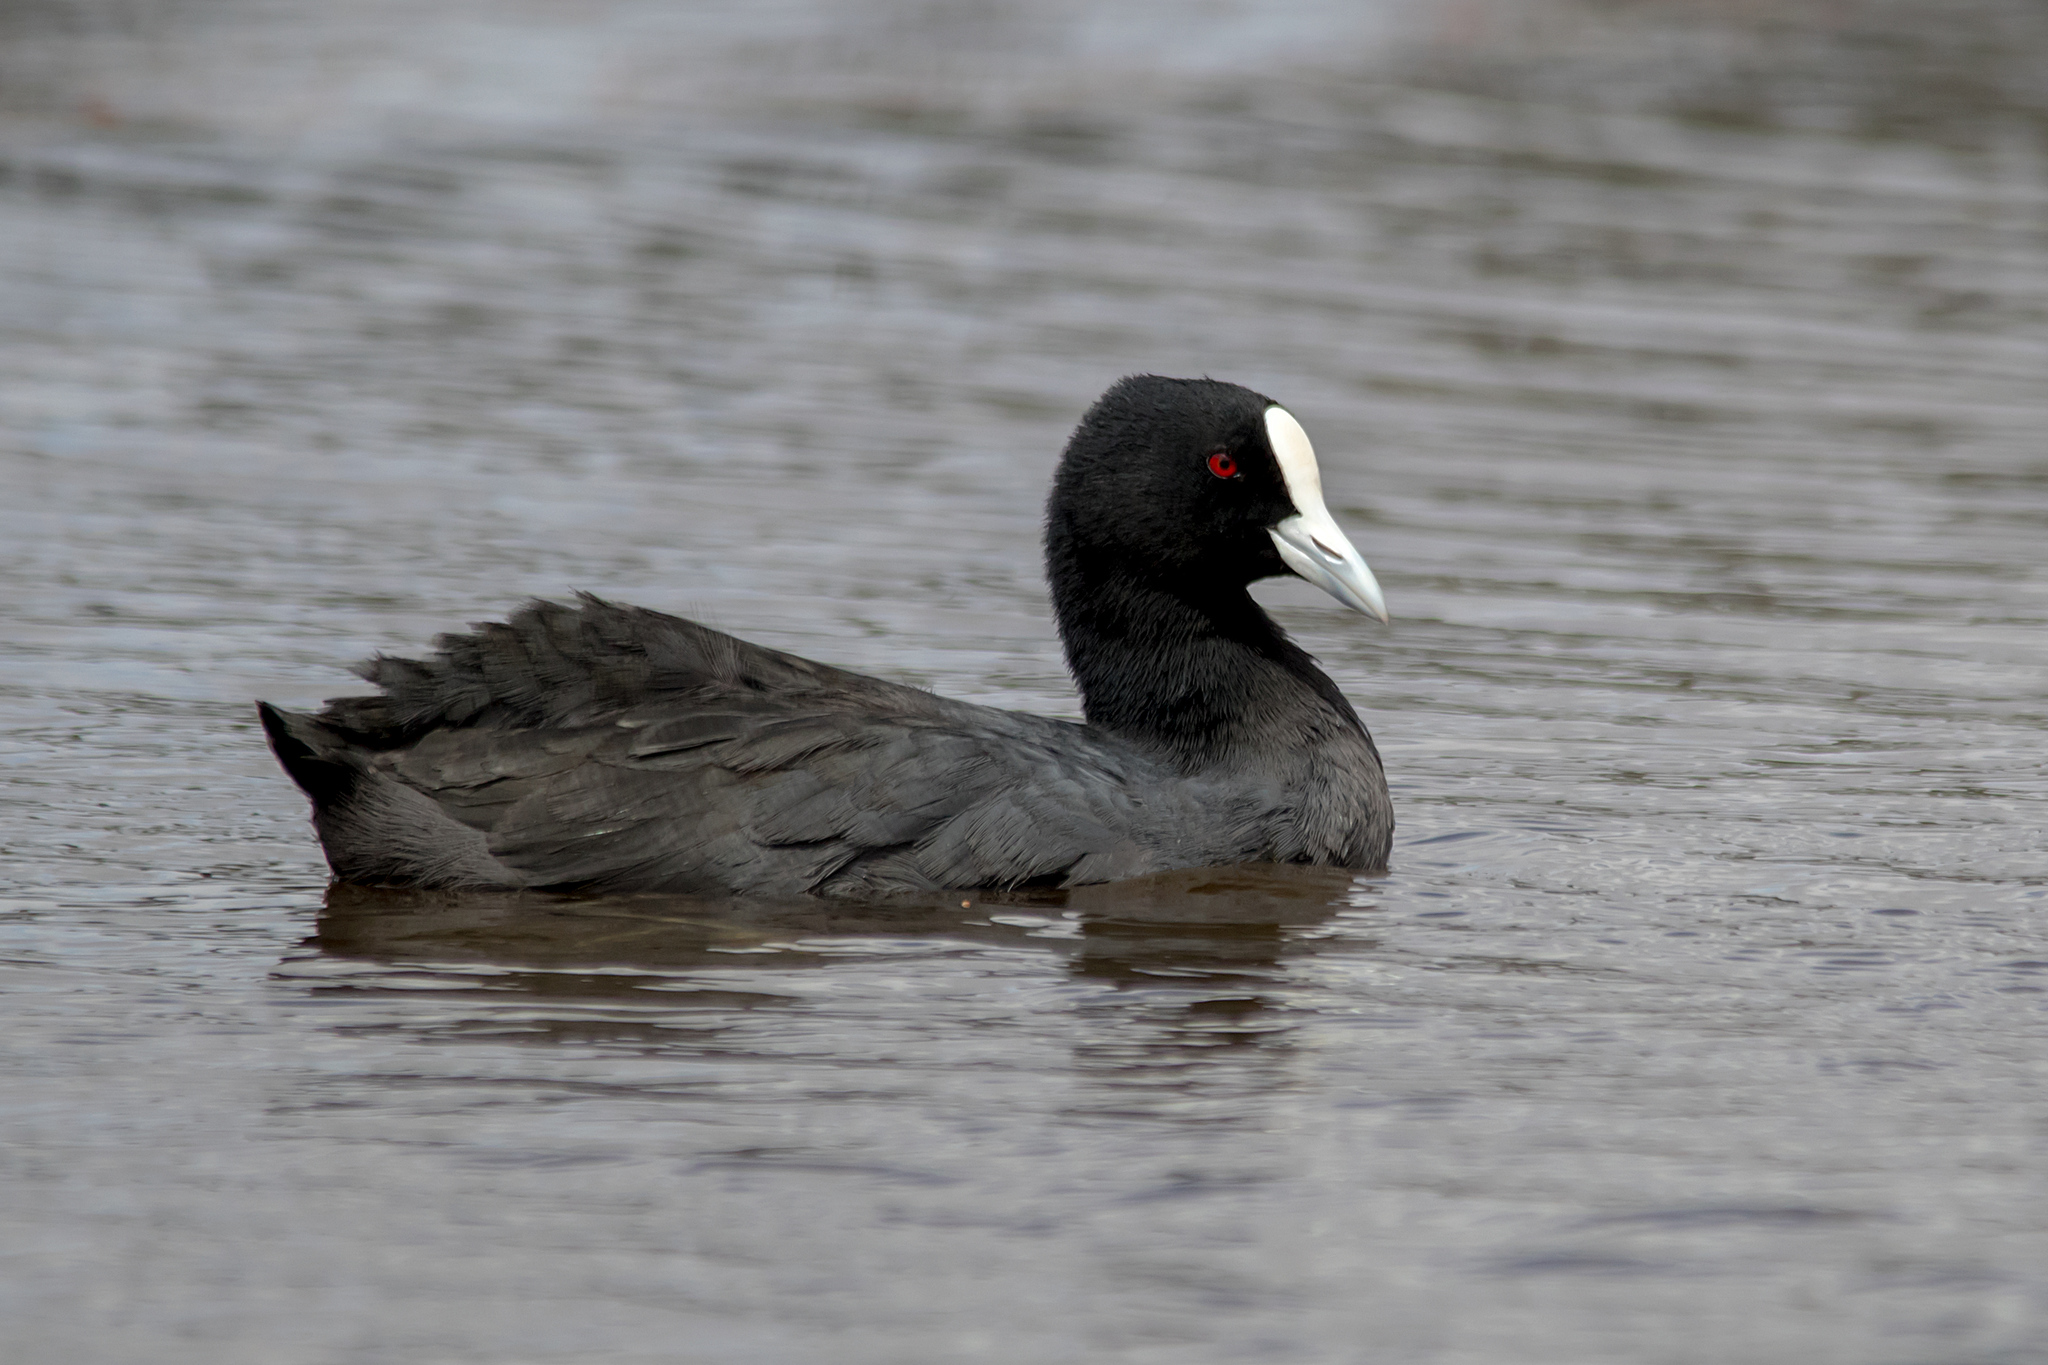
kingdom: Animalia
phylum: Chordata
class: Aves
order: Gruiformes
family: Rallidae
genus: Fulica
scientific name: Fulica atra
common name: Eurasian coot
